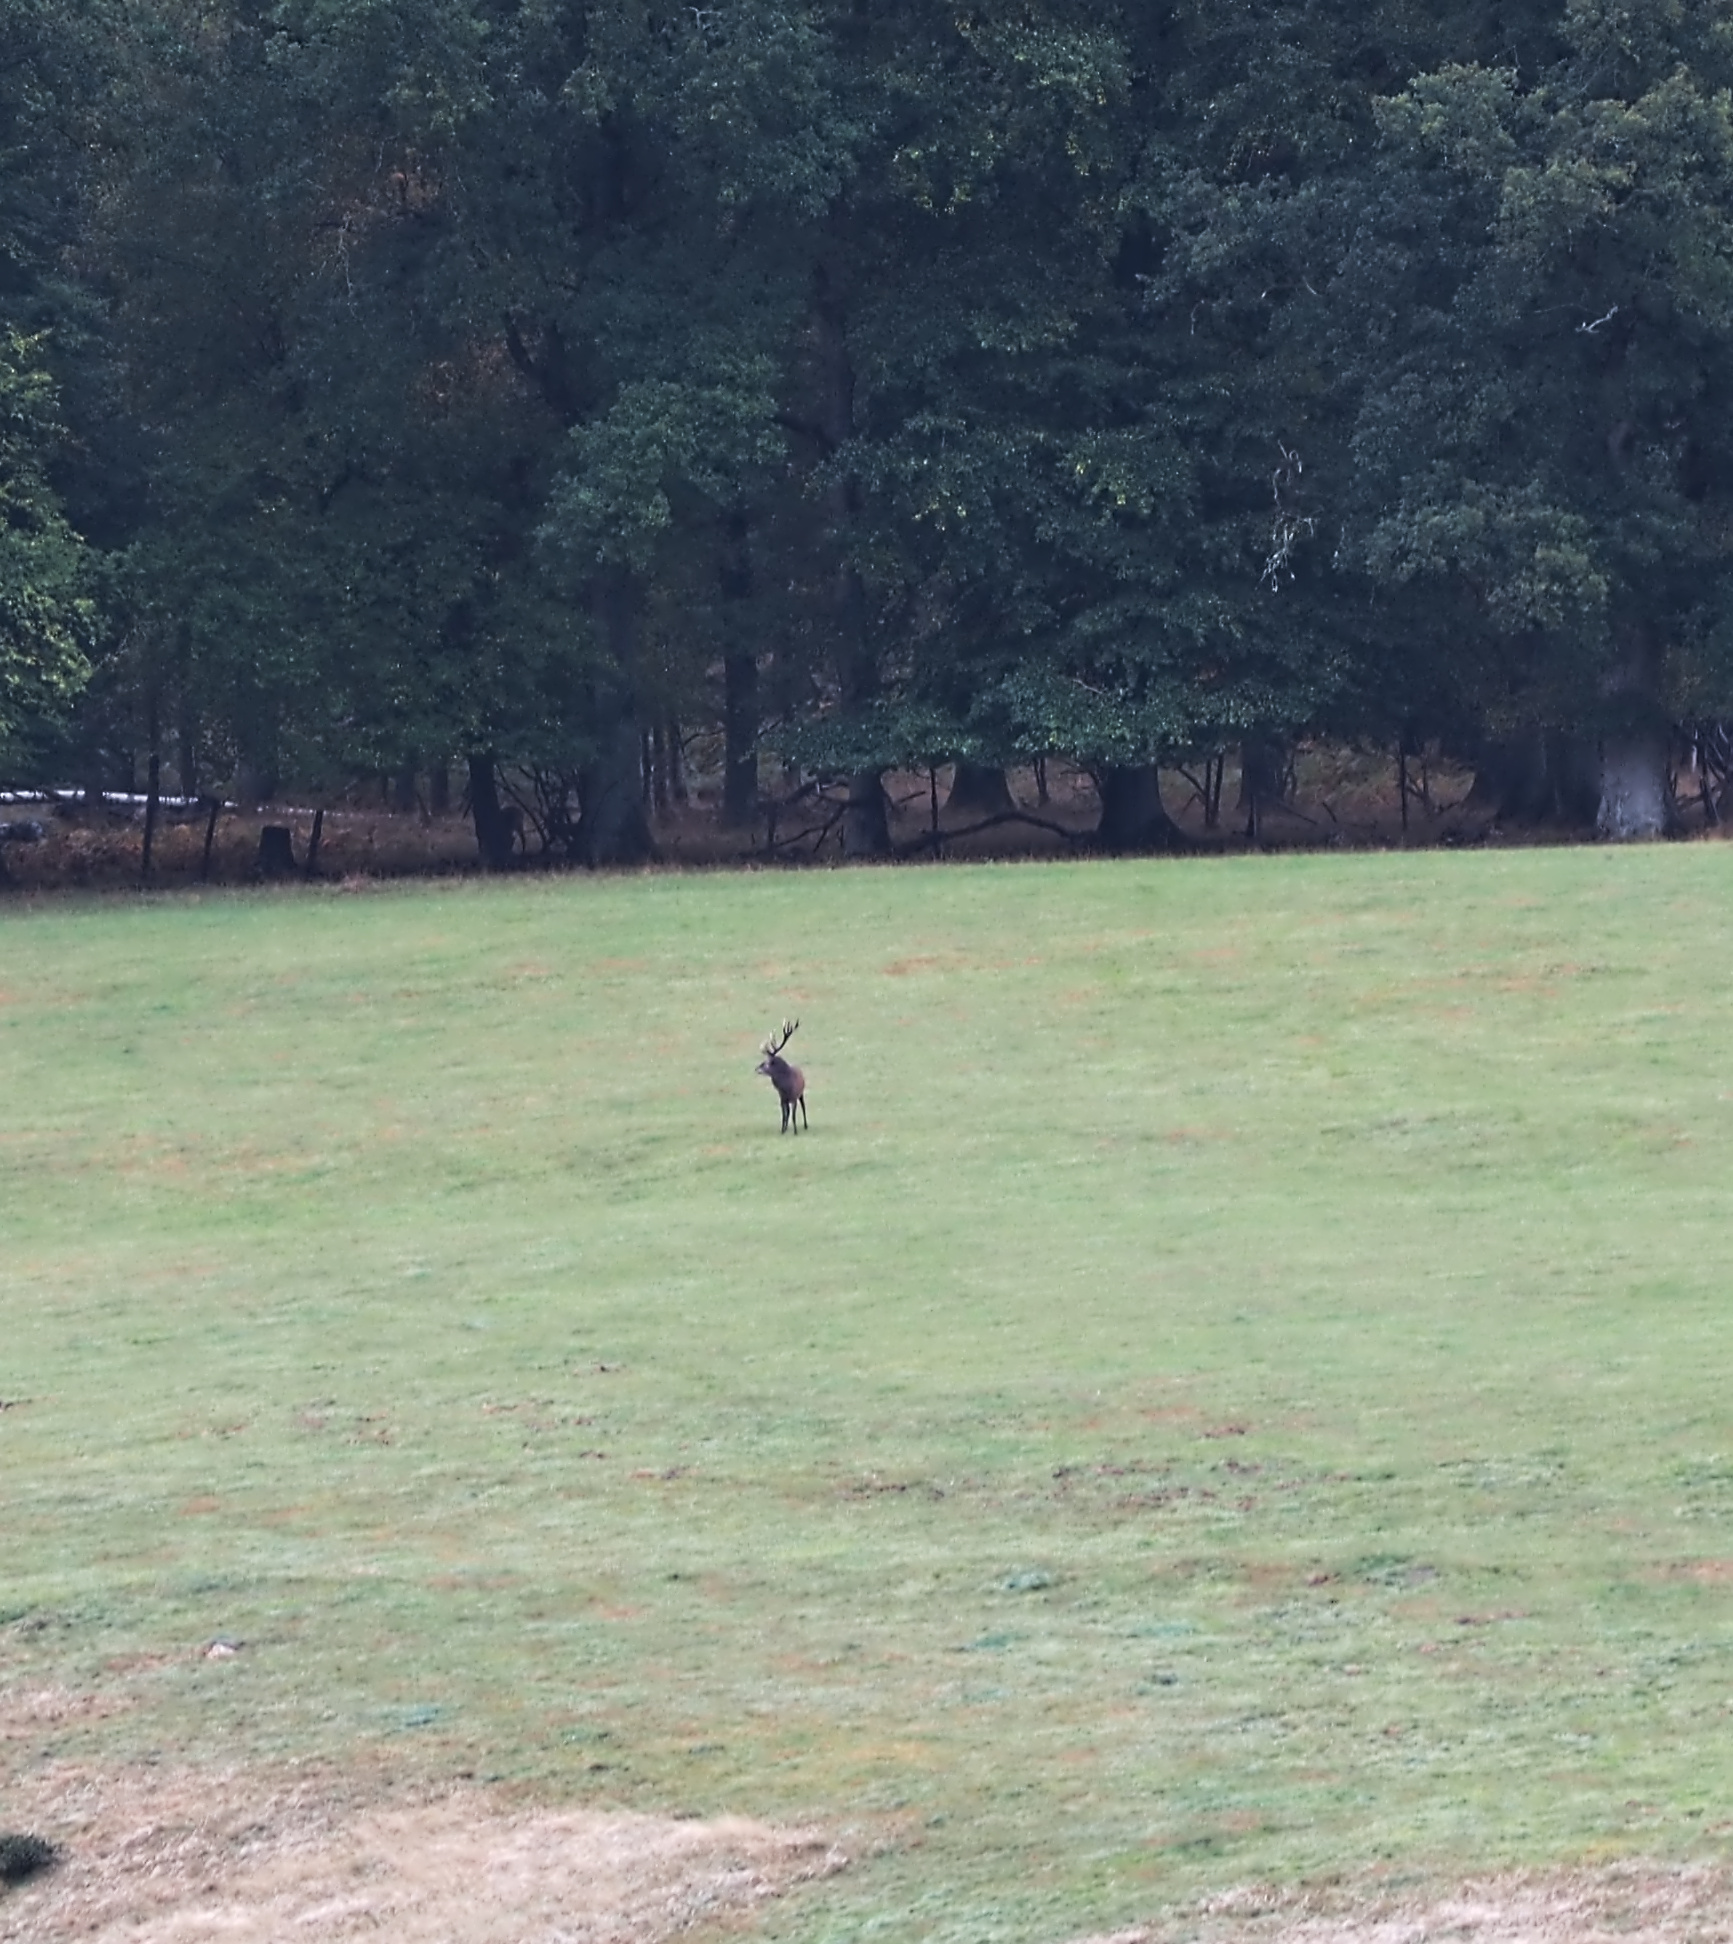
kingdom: Animalia
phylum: Chordata
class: Mammalia
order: Artiodactyla
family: Cervidae
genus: Cervus
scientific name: Cervus elaphus
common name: Red deer
